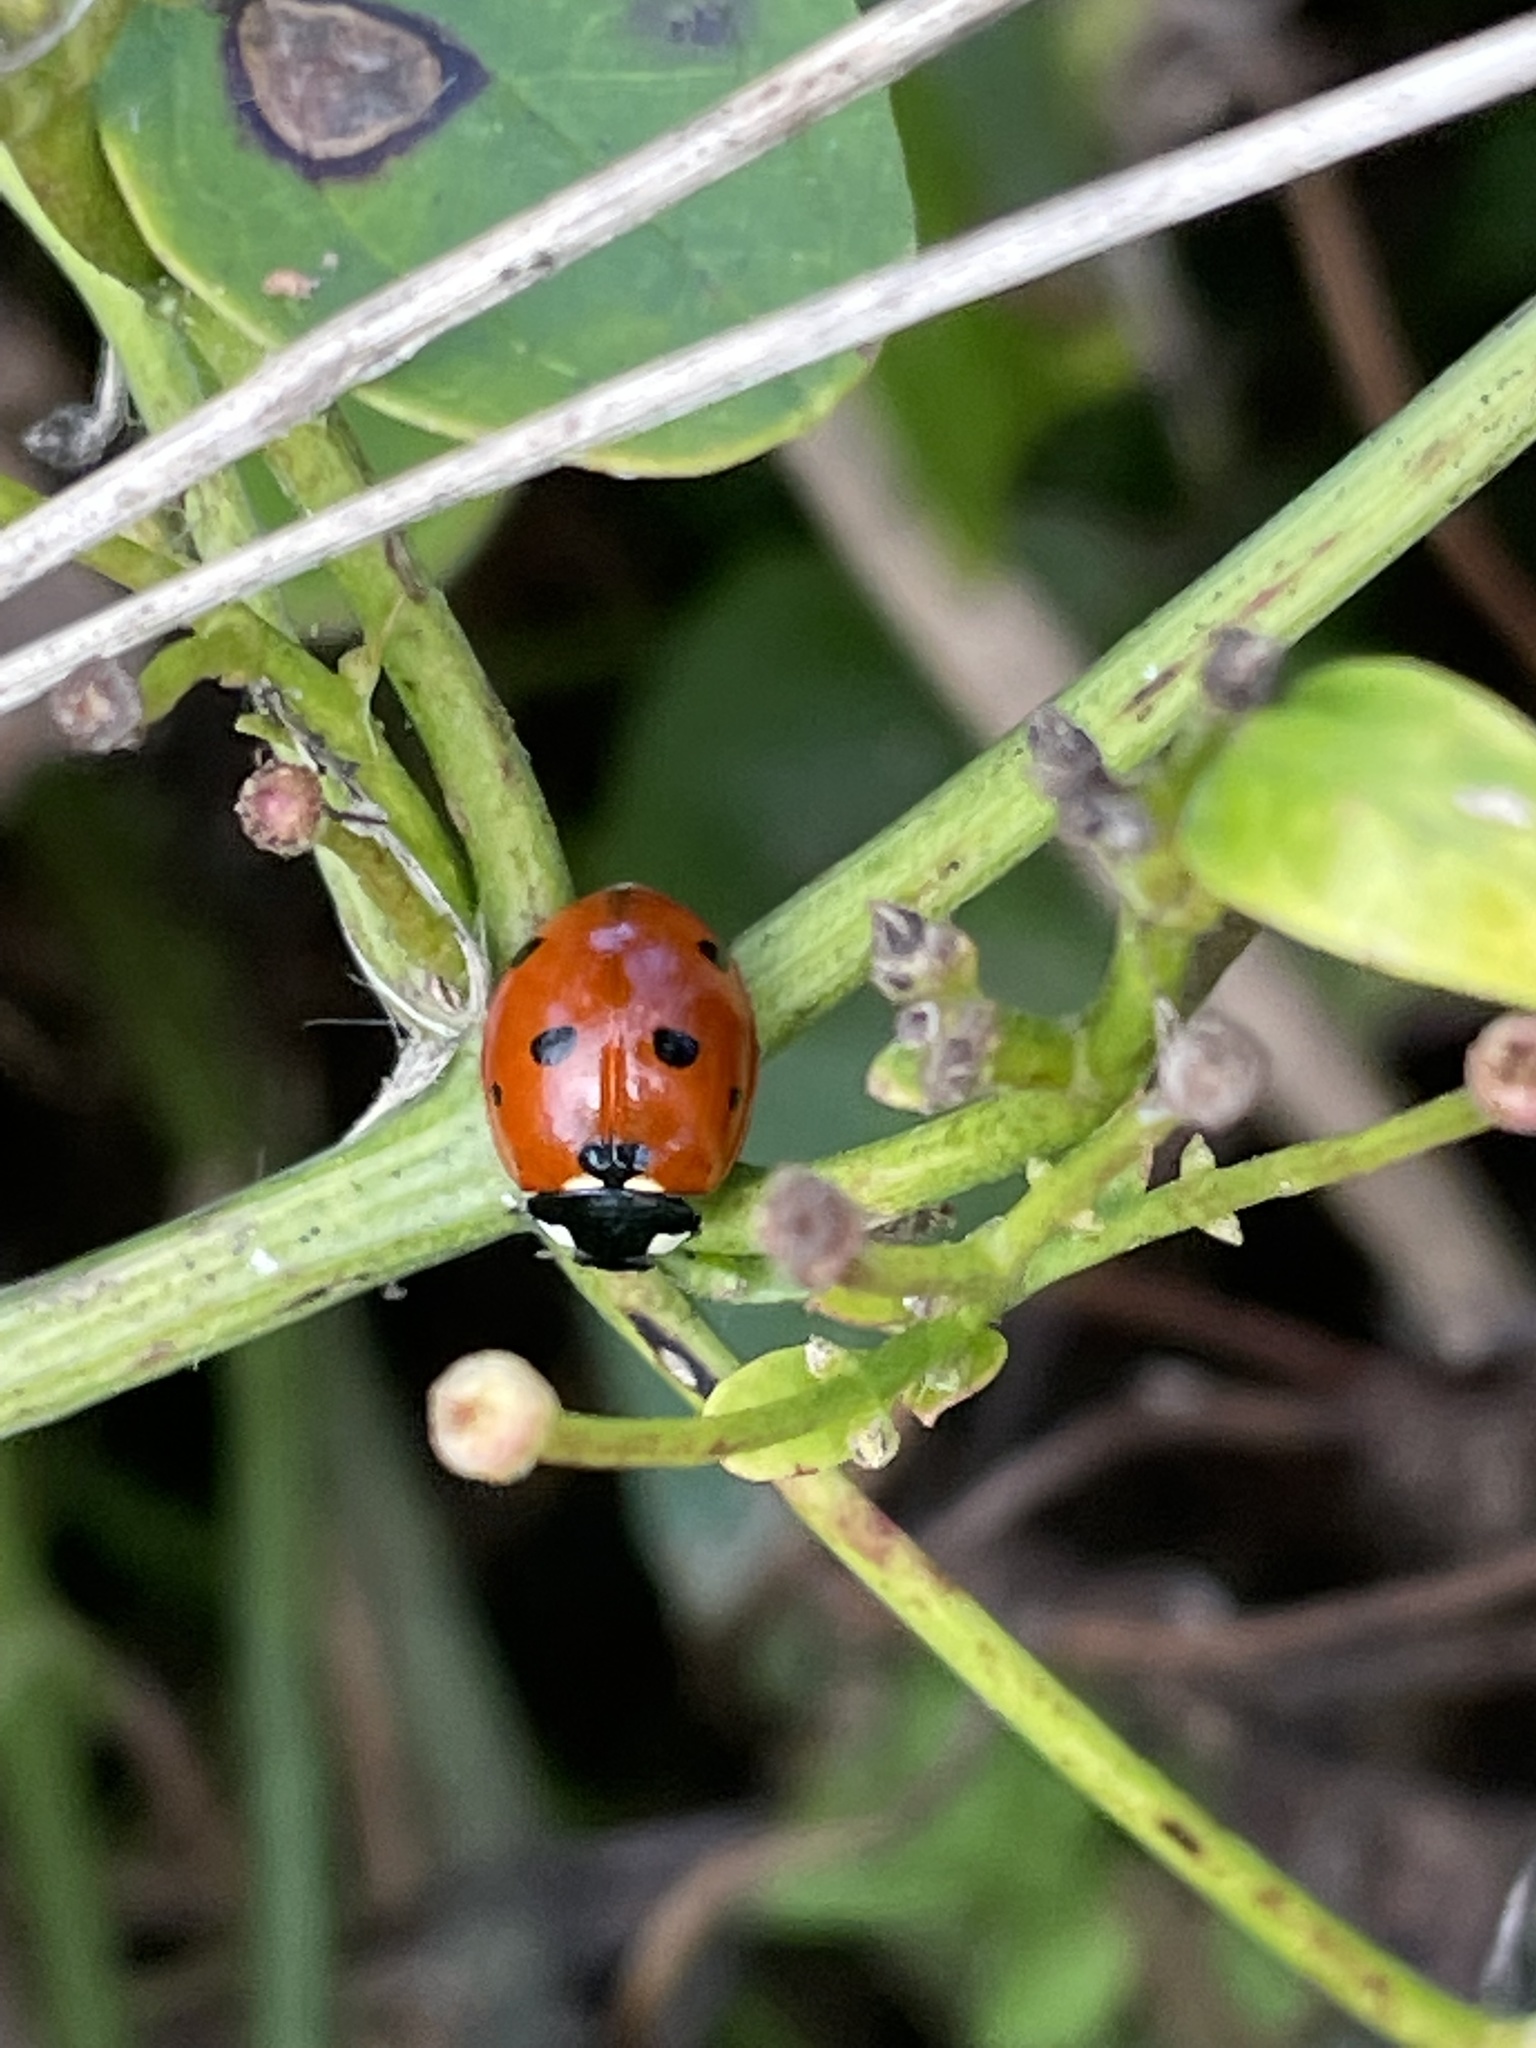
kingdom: Animalia
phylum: Arthropoda
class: Insecta
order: Coleoptera
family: Coccinellidae
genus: Coccinella
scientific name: Coccinella septempunctata
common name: Sevenspotted lady beetle
